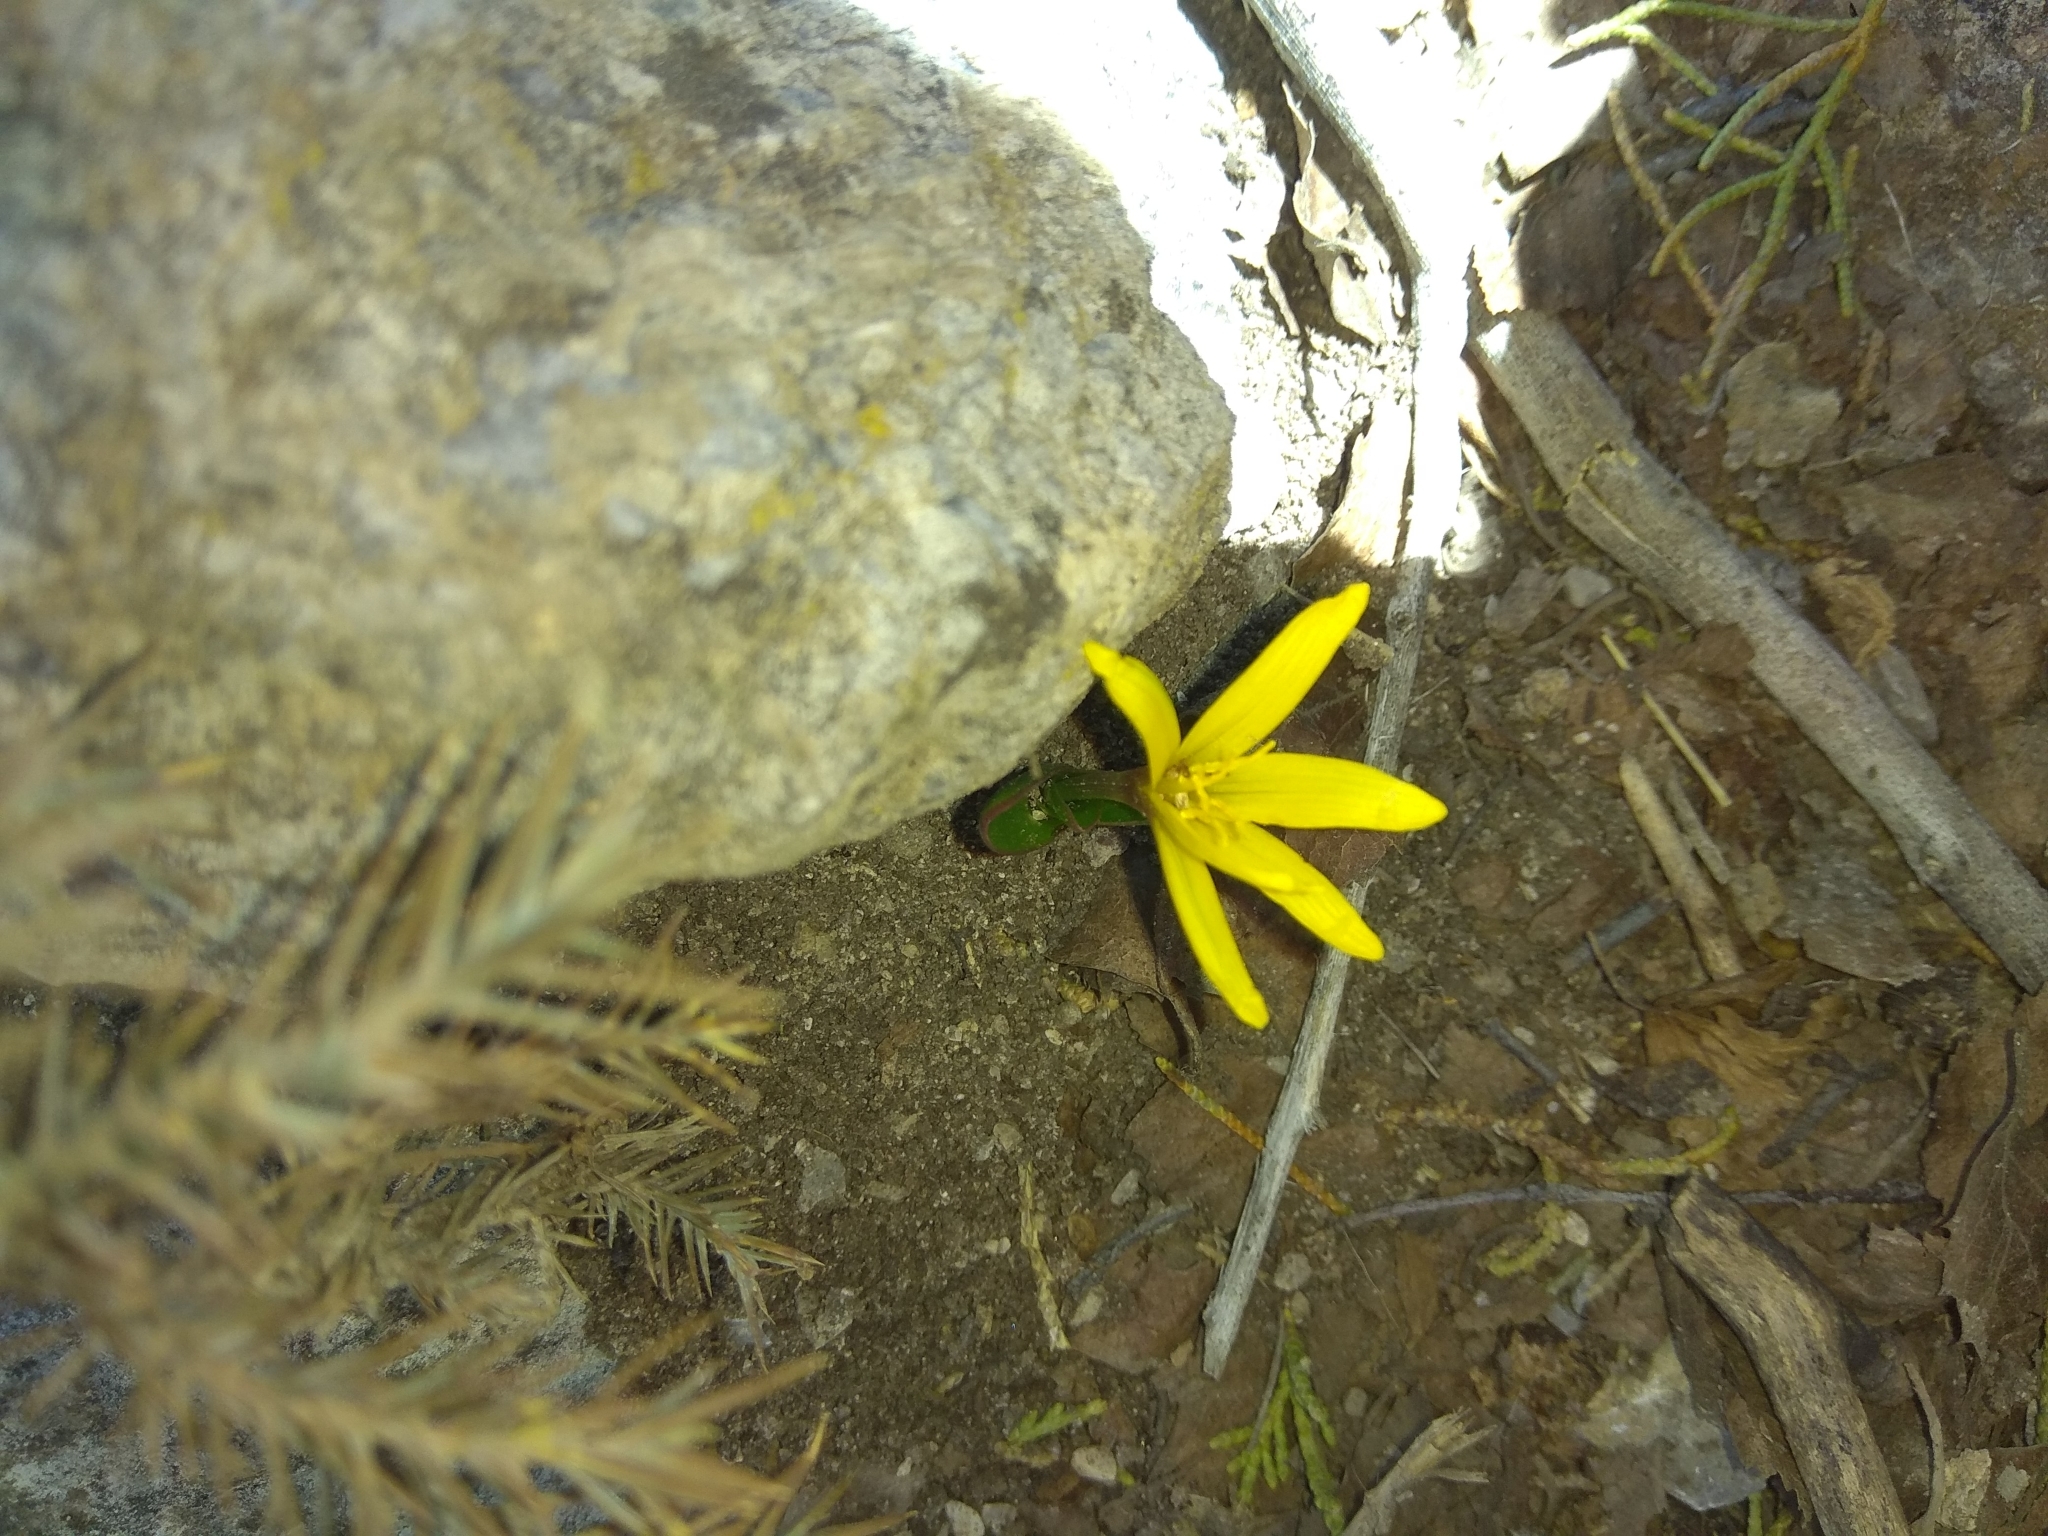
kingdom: Plantae
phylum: Tracheophyta
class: Liliopsida
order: Liliales
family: Colchicaceae
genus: Colchicum
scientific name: Colchicum luteum
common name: Indian colchicum
